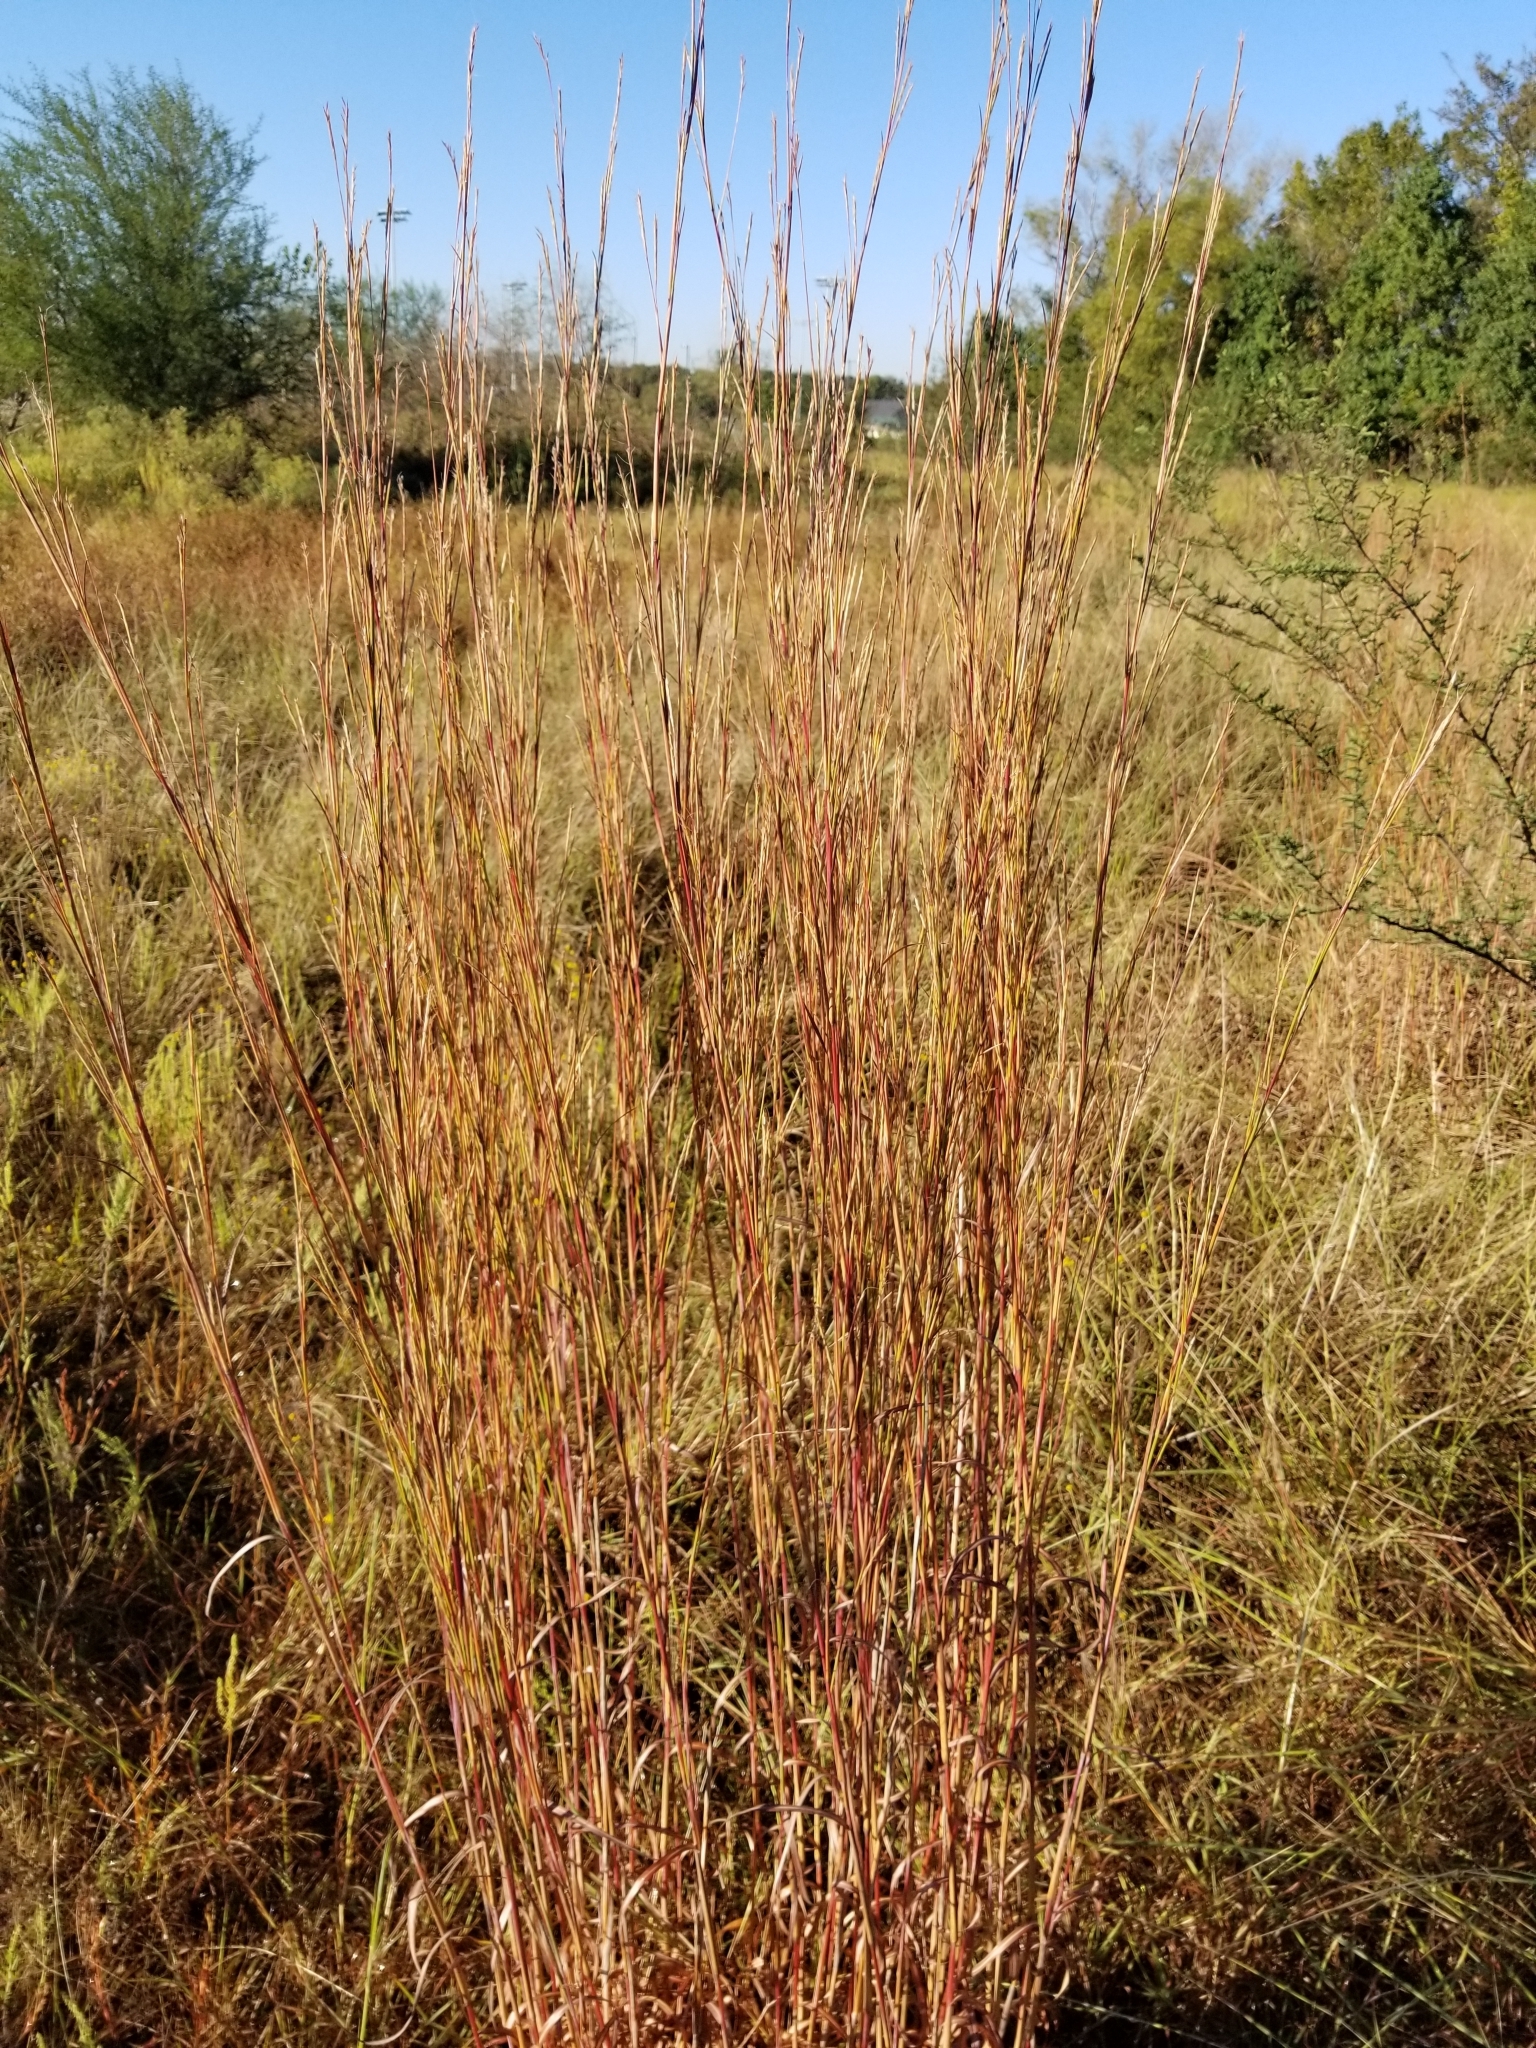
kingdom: Plantae
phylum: Tracheophyta
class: Liliopsida
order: Poales
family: Poaceae
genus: Schizachyrium
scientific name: Schizachyrium scoparium
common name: Little bluestem
